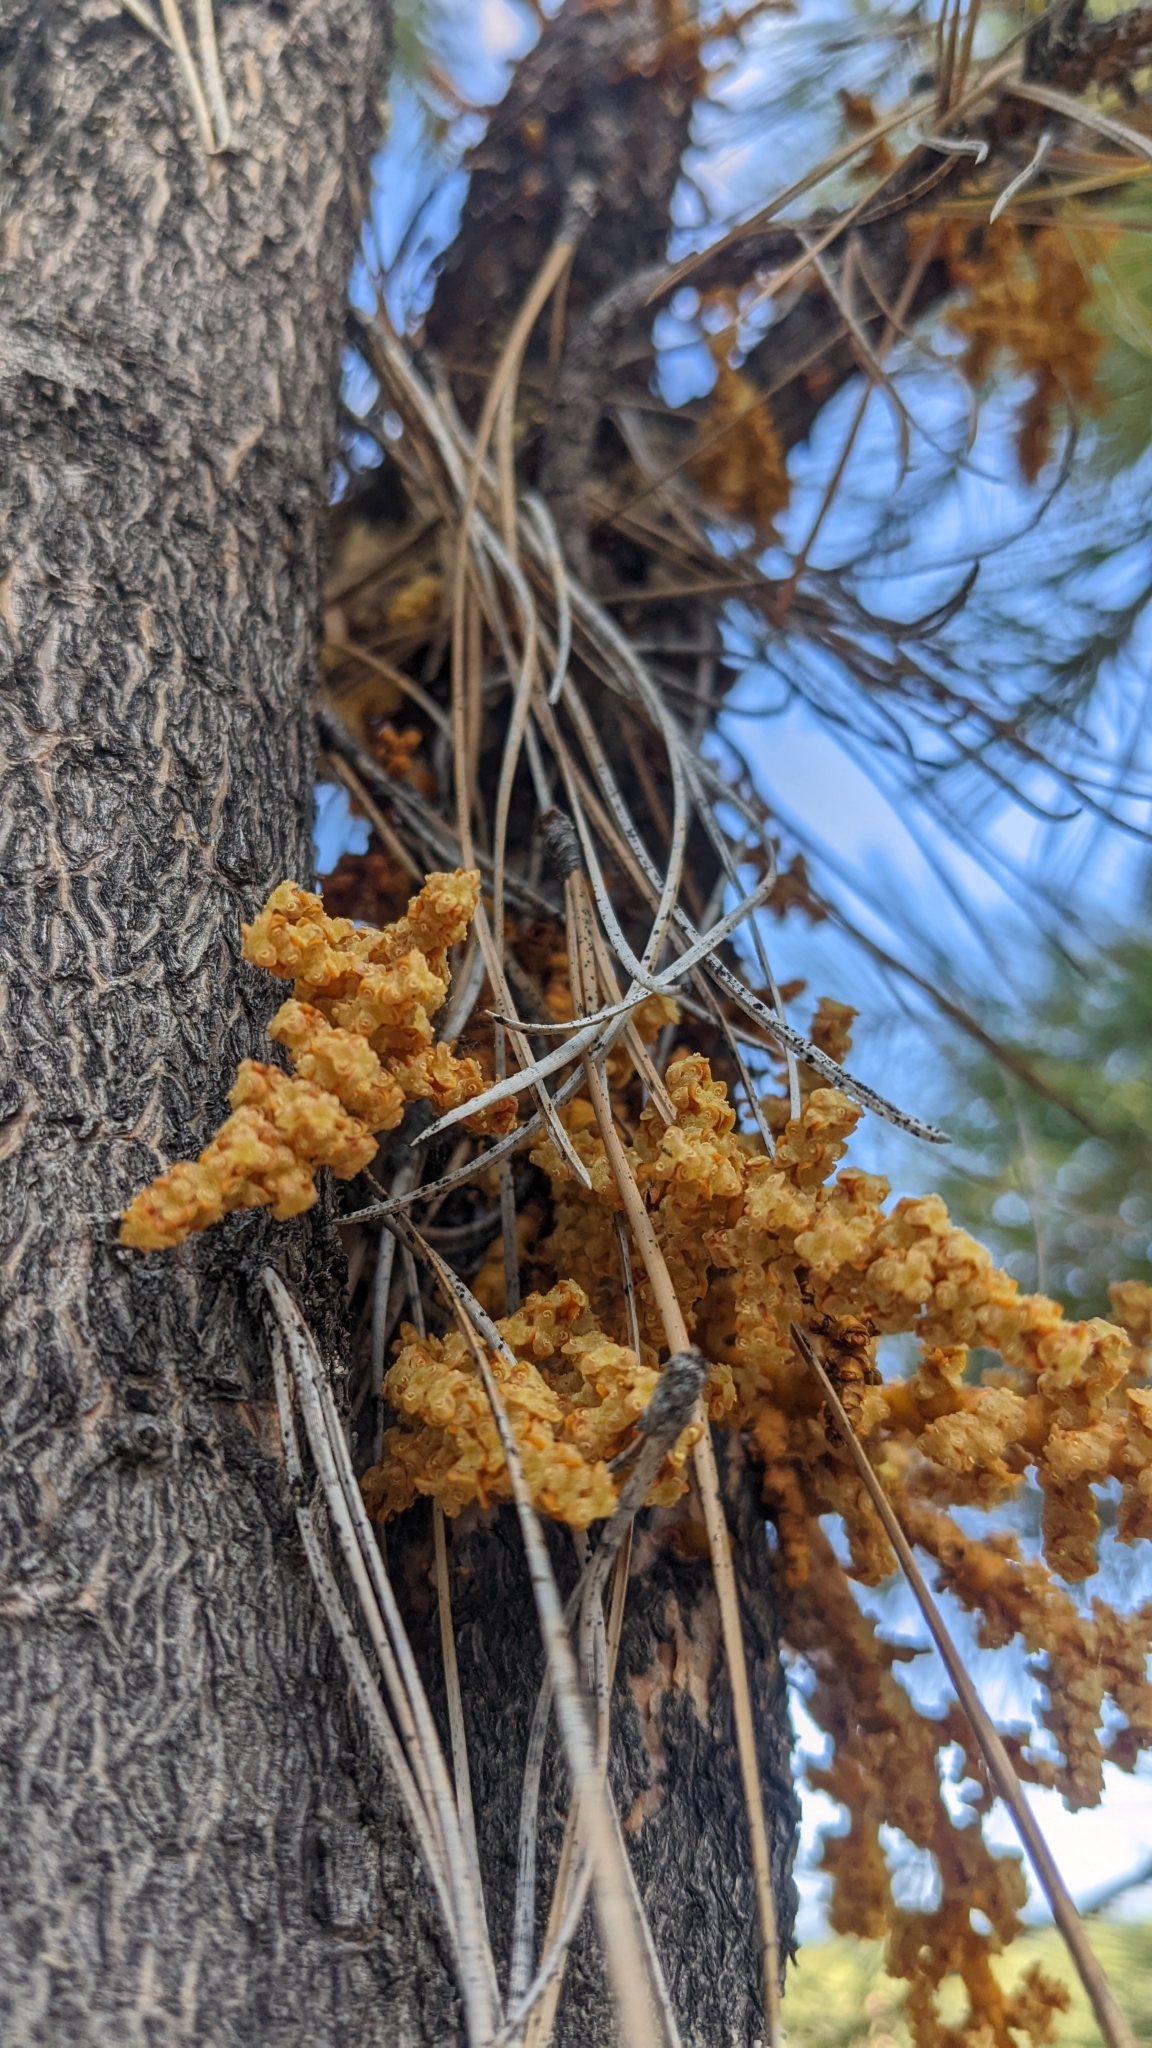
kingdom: Plantae
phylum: Tracheophyta
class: Magnoliopsida
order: Santalales
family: Viscaceae
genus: Arceuthobium
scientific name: Arceuthobium vaginatum
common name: Southwestern dwarf-mistletoe
